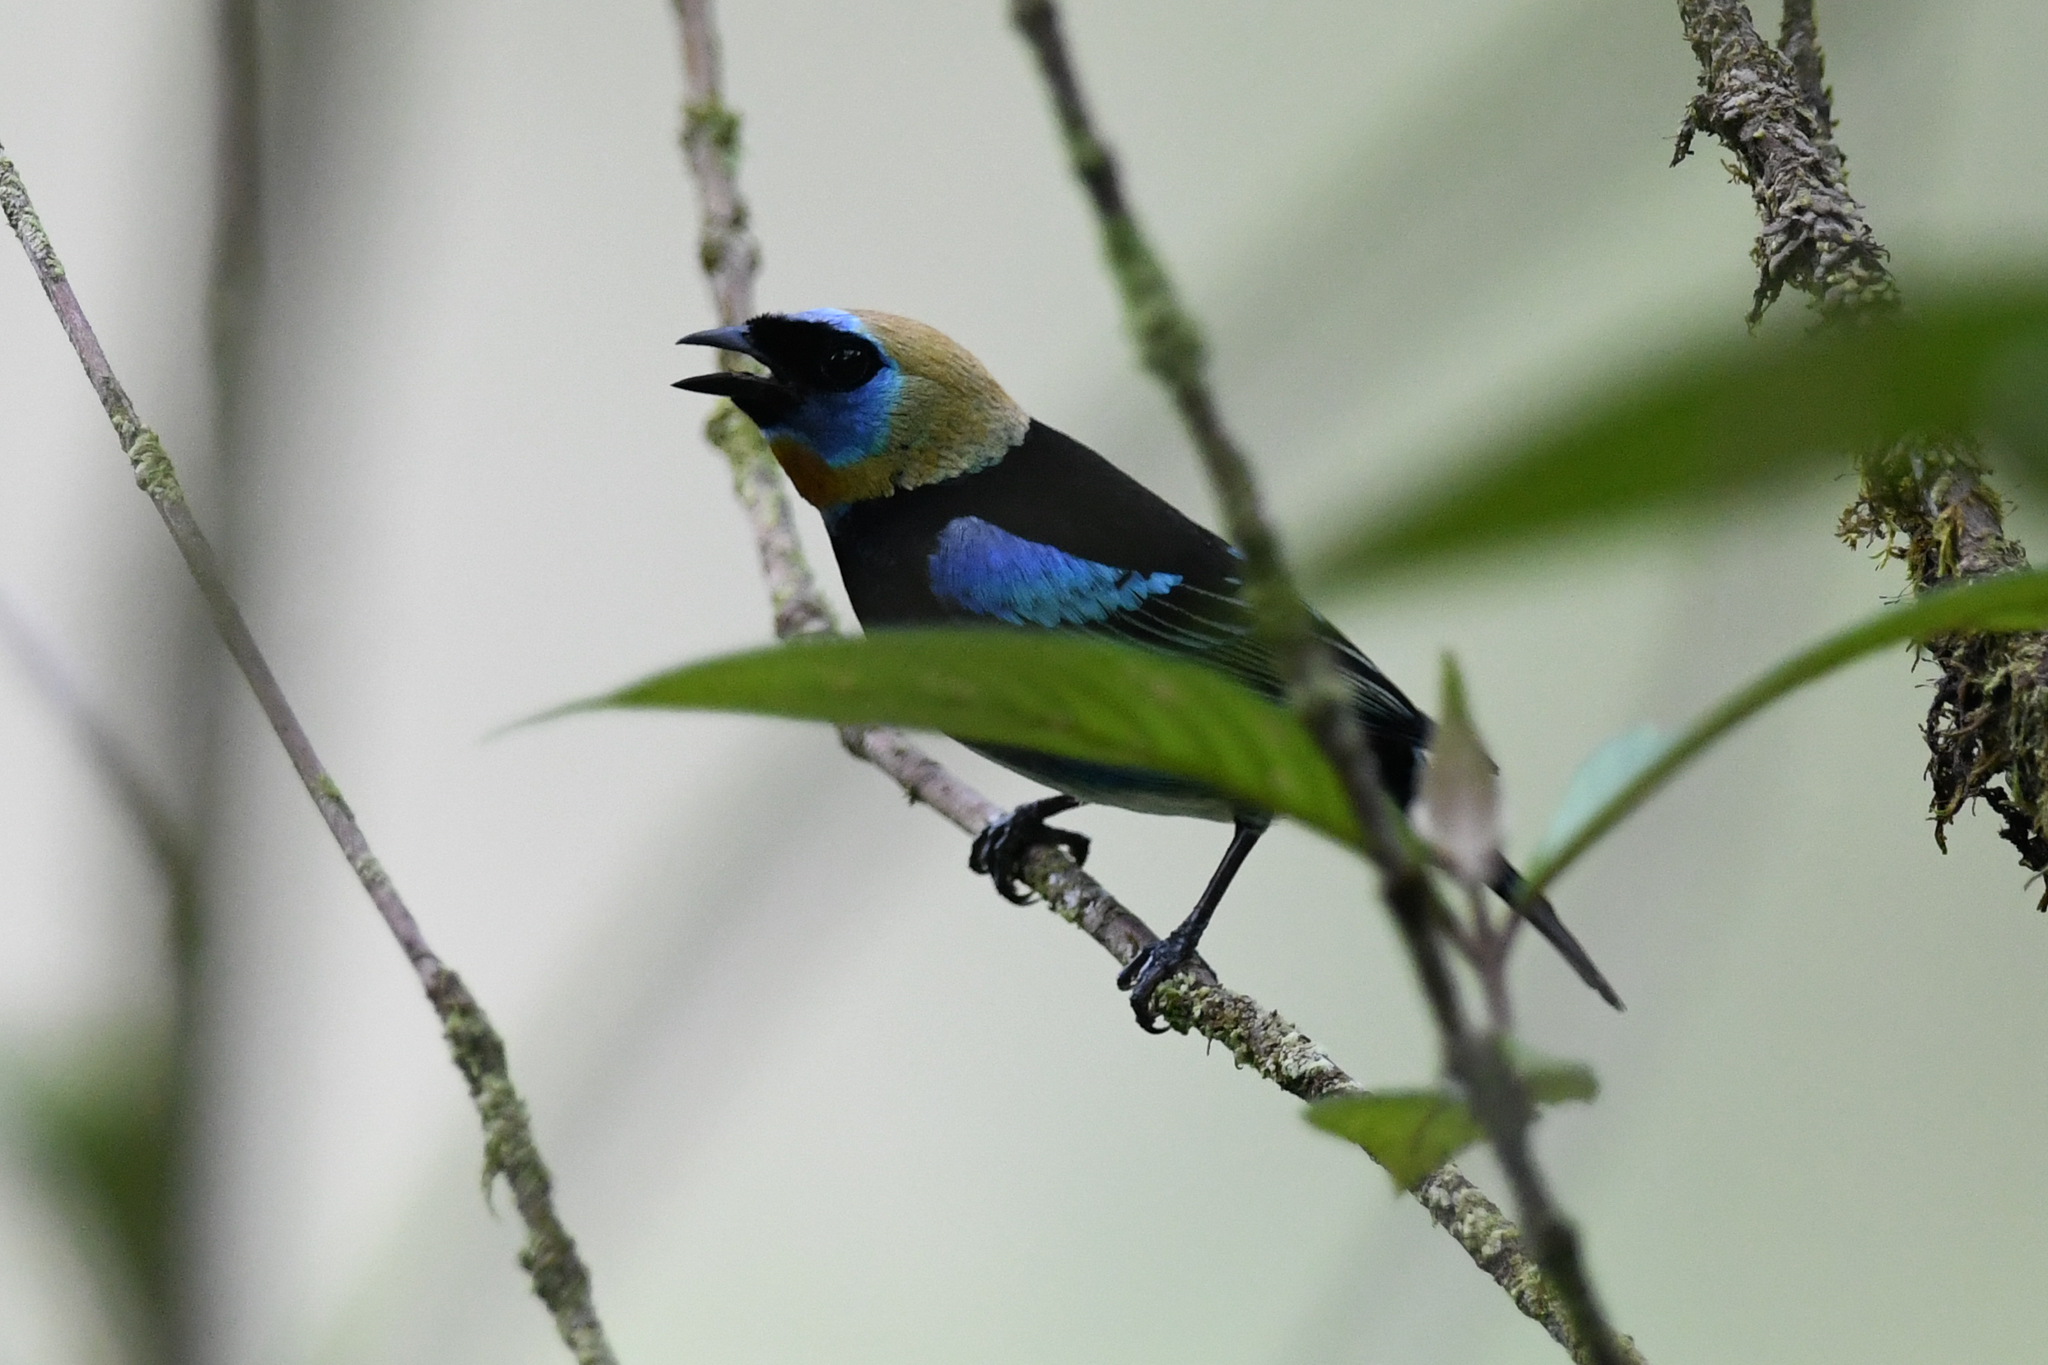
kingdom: Animalia
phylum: Chordata
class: Aves
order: Passeriformes
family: Thraupidae
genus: Stilpnia
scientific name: Stilpnia larvata
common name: Golden-hooded tanager
